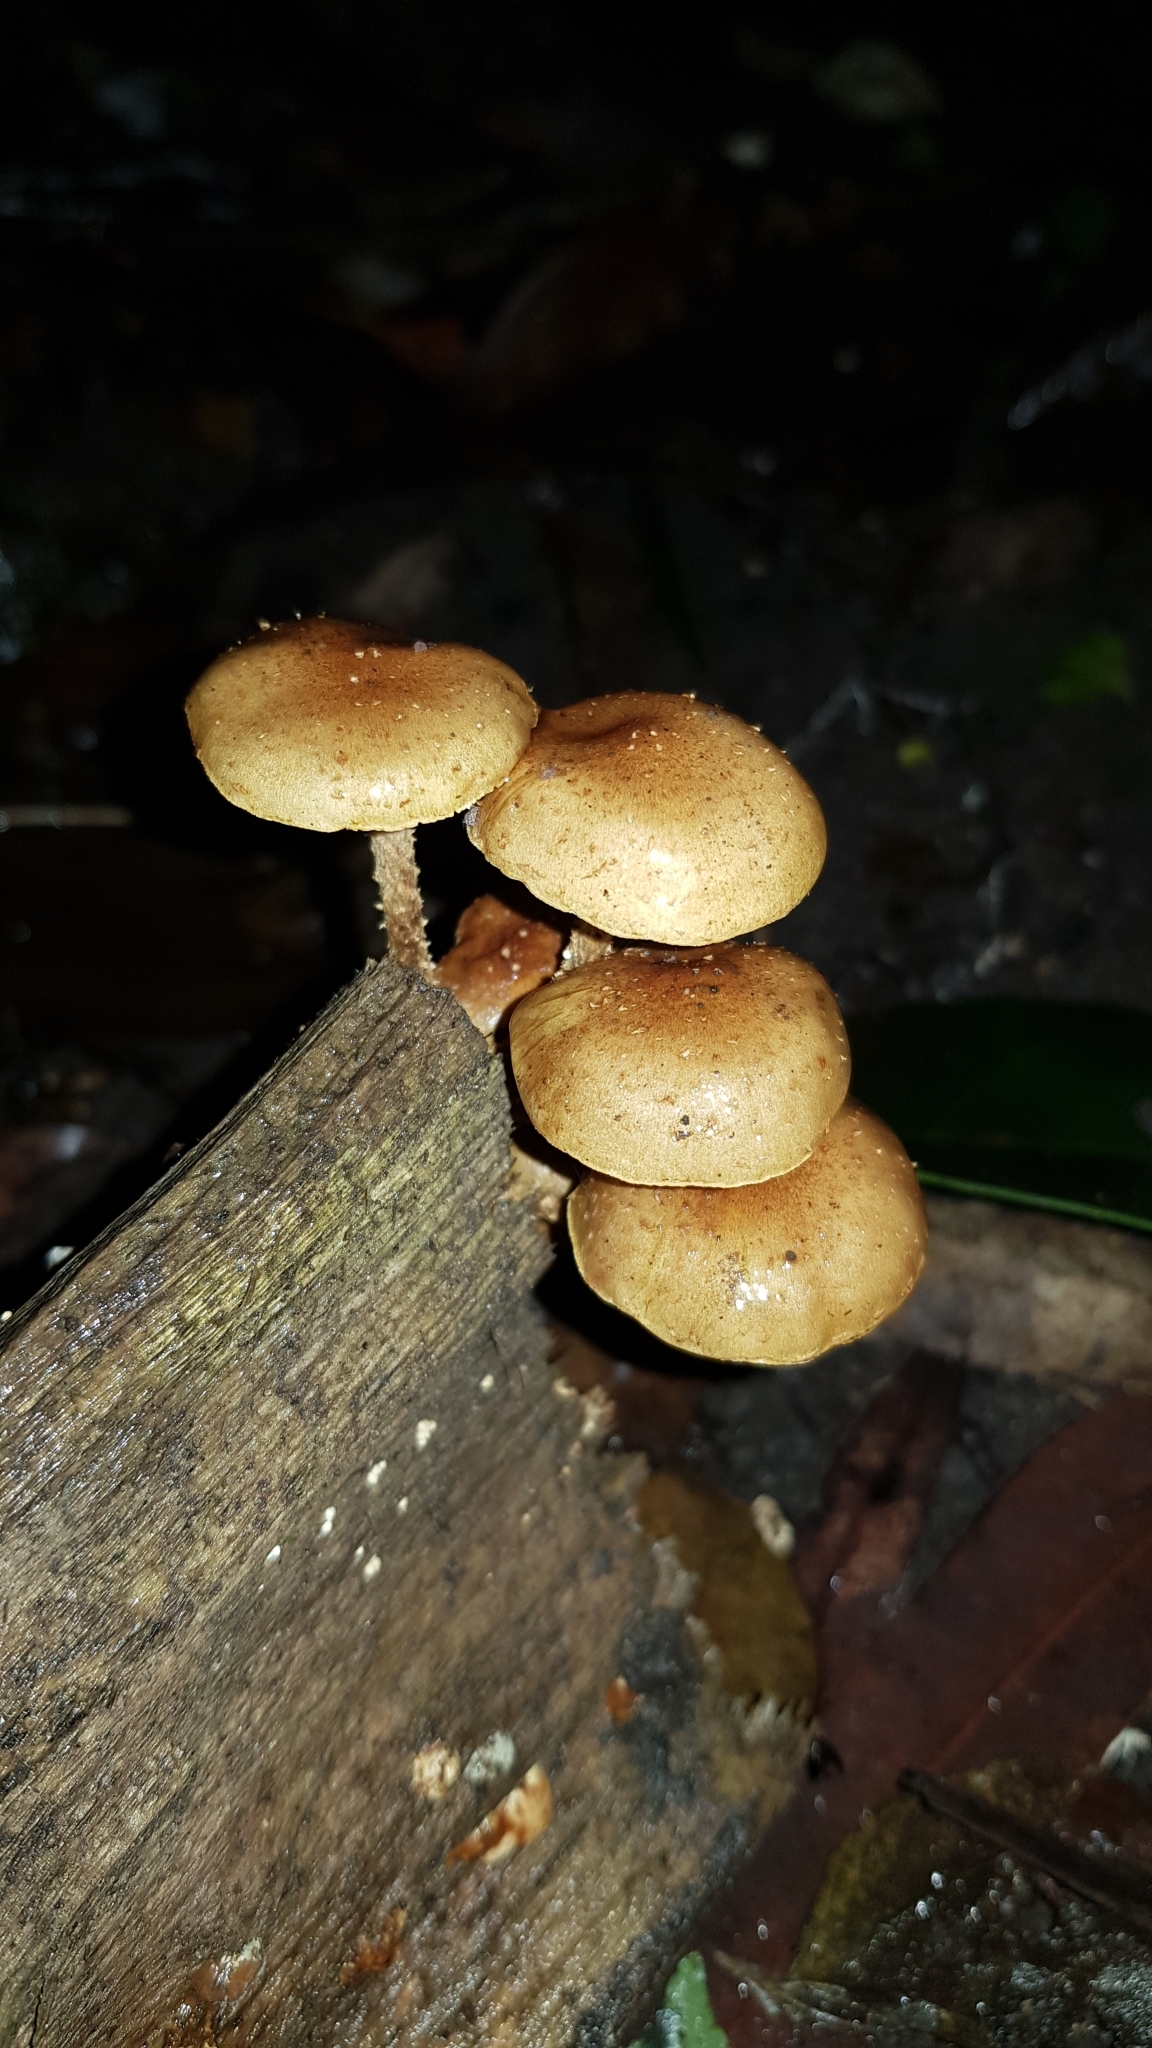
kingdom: Fungi
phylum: Basidiomycota
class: Agaricomycetes
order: Agaricales
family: Strophariaceae
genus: Pholiota
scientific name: Pholiota squarrosipes
